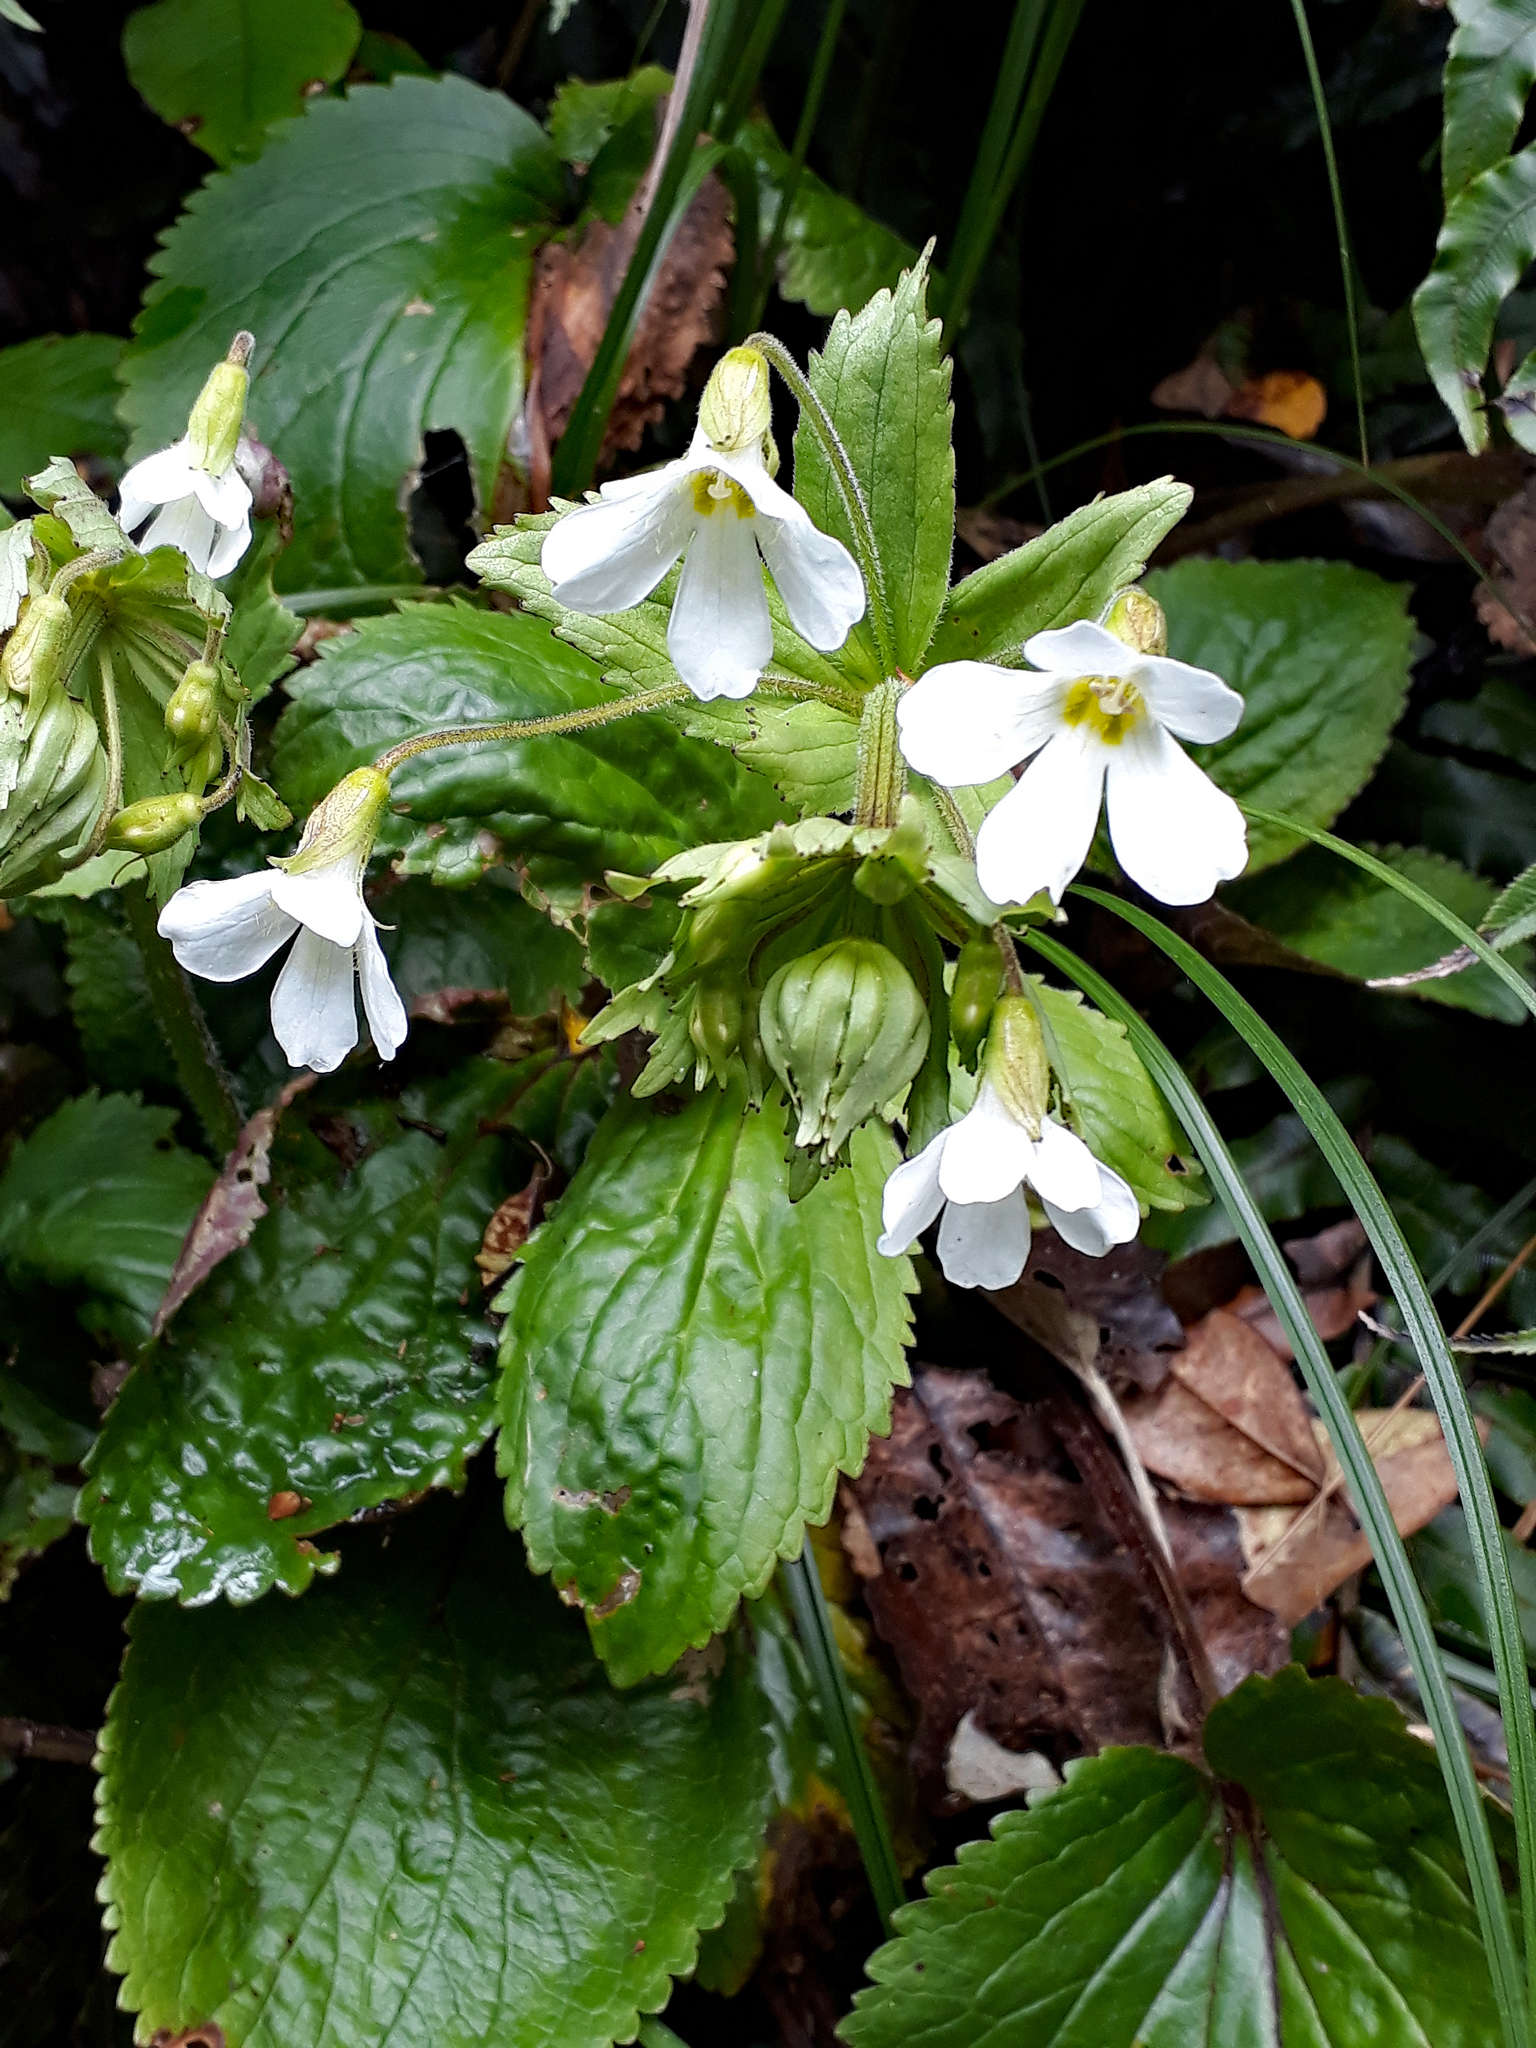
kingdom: Plantae
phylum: Tracheophyta
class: Magnoliopsida
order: Lamiales
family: Plantaginaceae
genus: Ourisia
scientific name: Ourisia macrophylla
